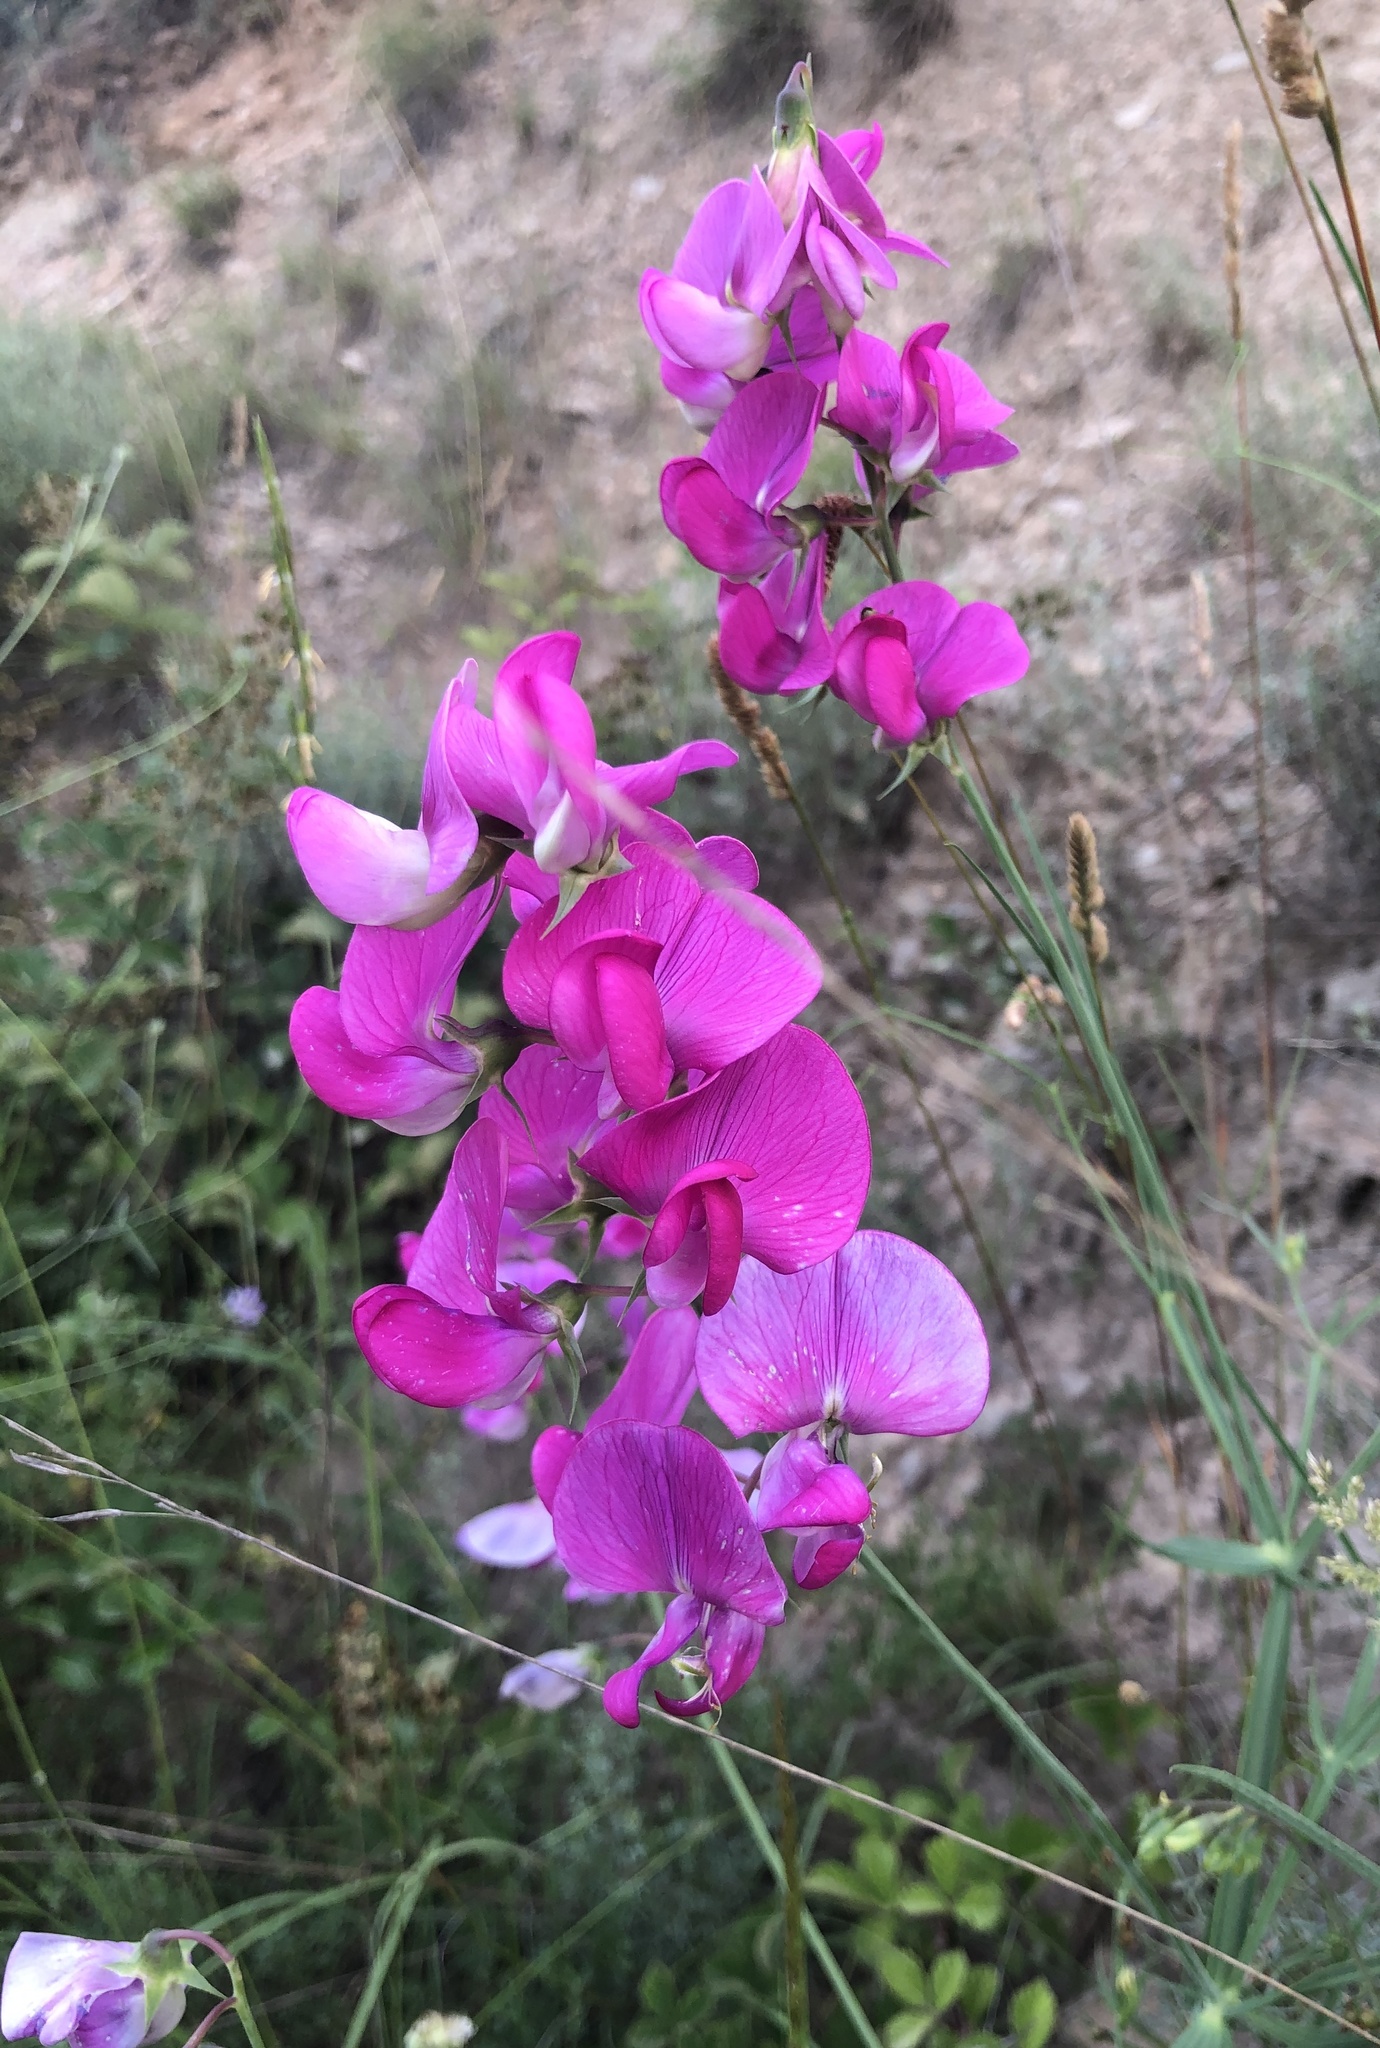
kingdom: Plantae
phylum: Tracheophyta
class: Magnoliopsida
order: Fabales
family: Fabaceae
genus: Lathyrus
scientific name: Lathyrus latifolius
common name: Perennial pea
